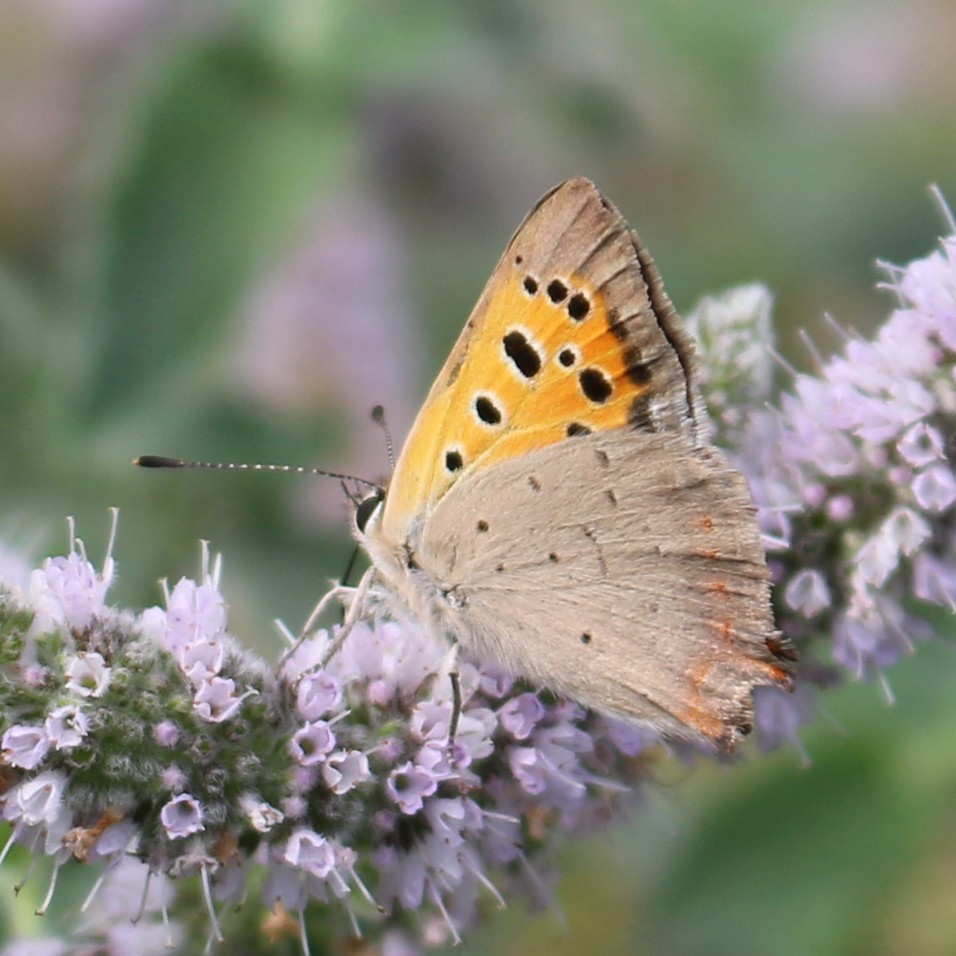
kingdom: Animalia
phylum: Arthropoda
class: Insecta
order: Lepidoptera
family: Lycaenidae
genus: Lycaena
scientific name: Lycaena phlaeas
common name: Small copper
